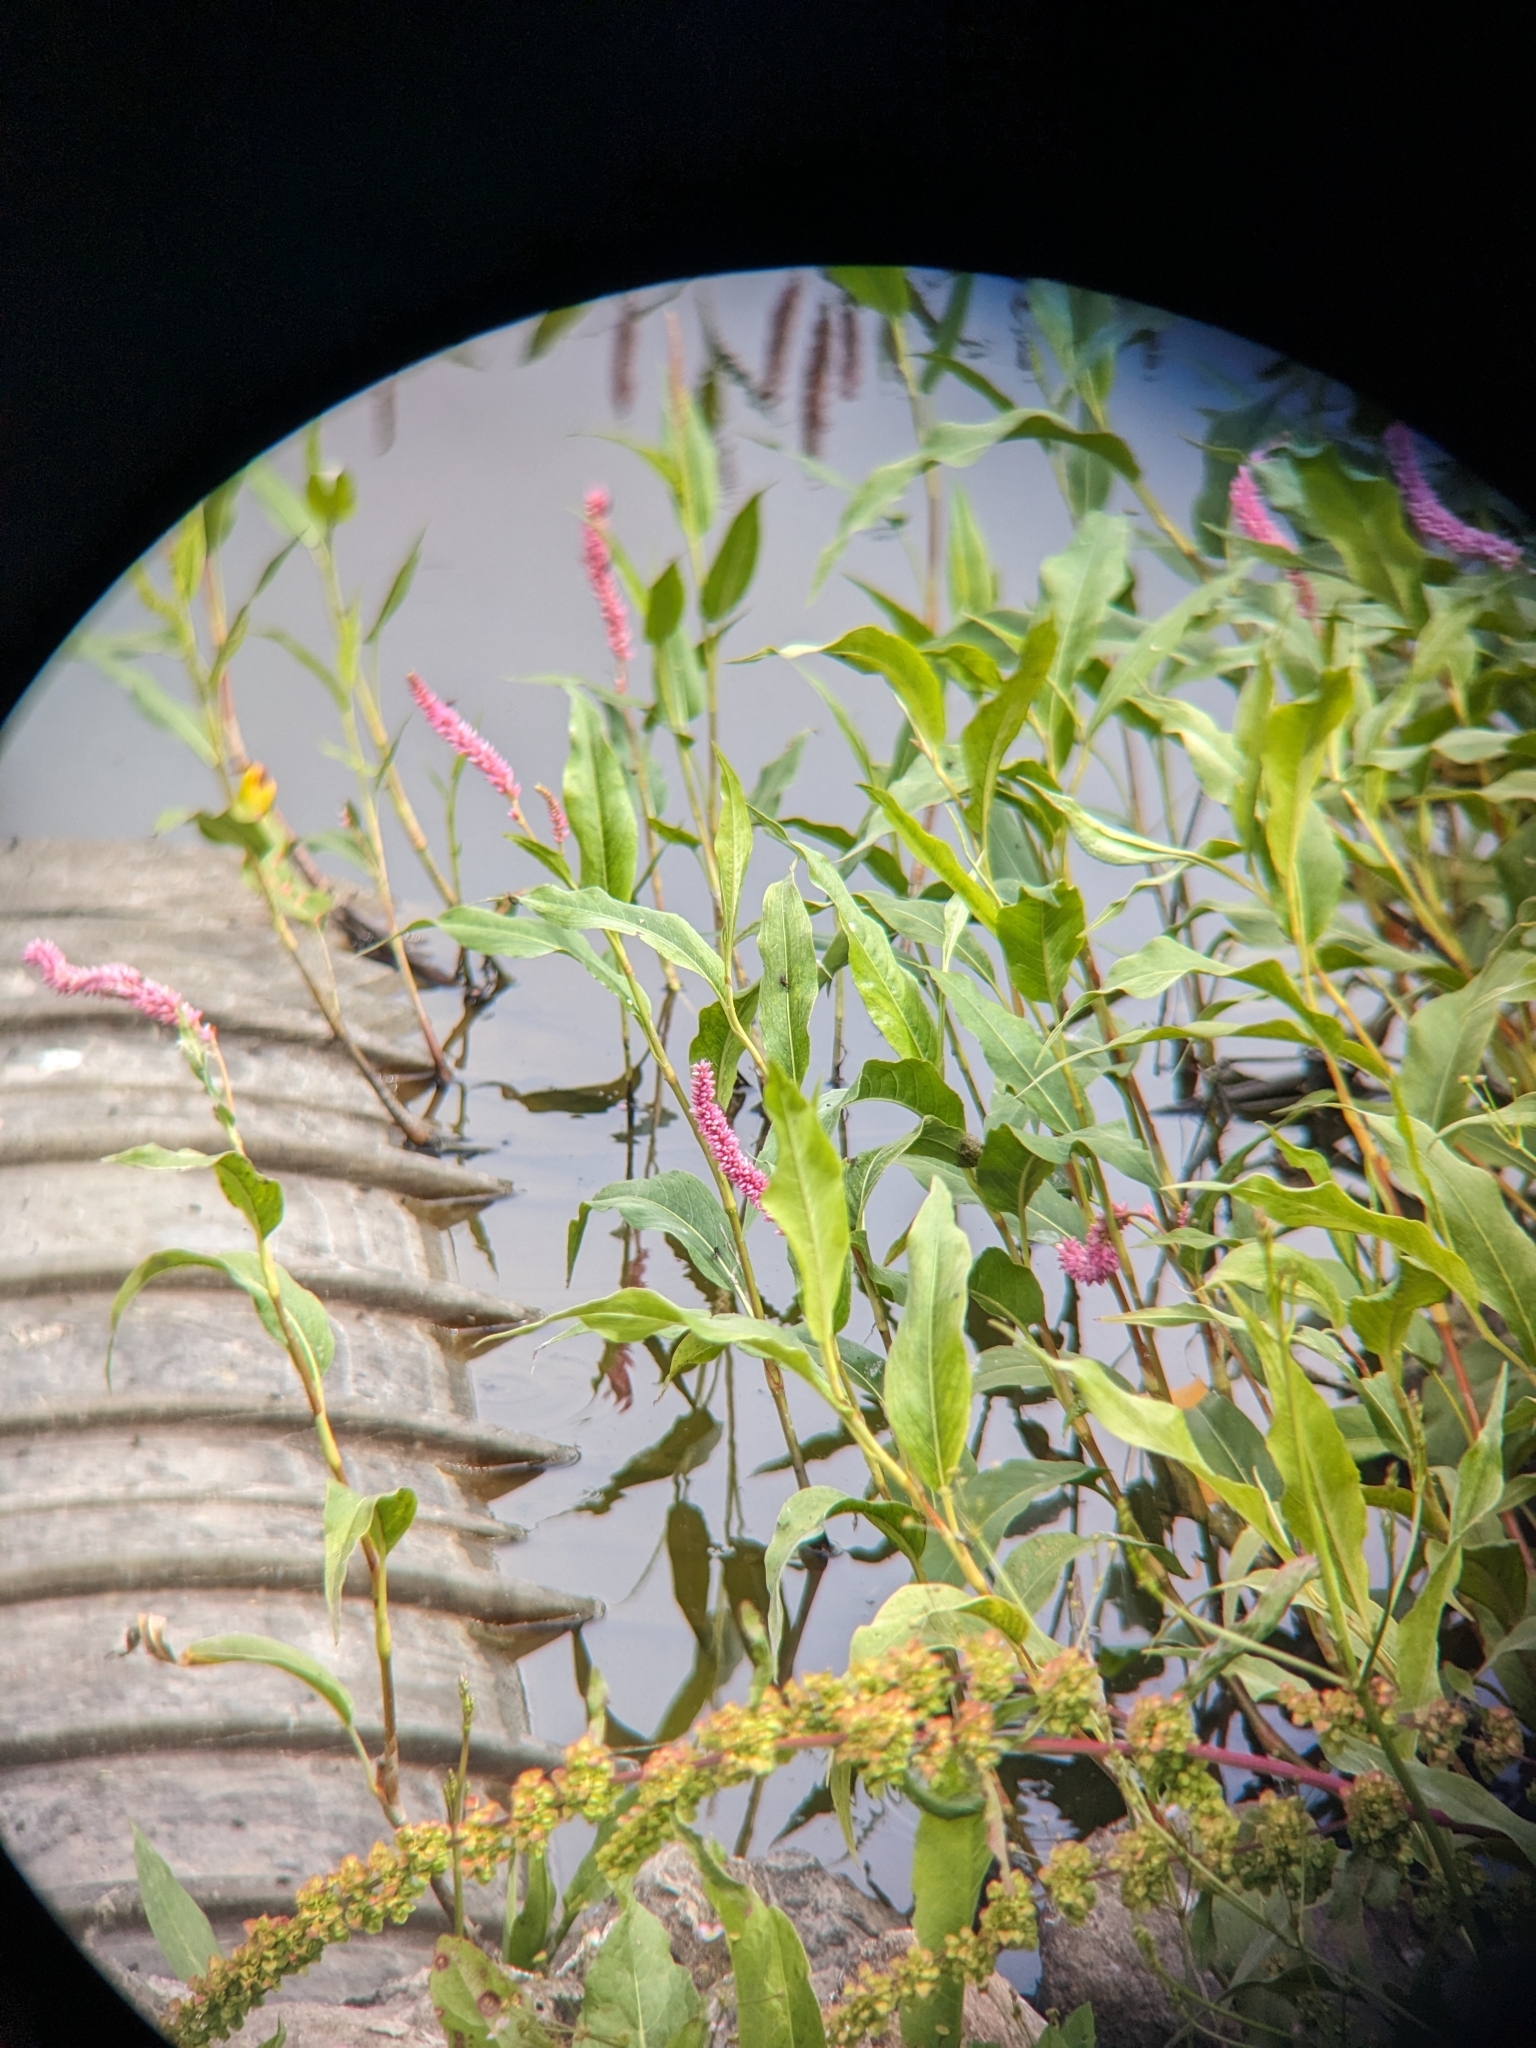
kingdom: Plantae
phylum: Tracheophyta
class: Magnoliopsida
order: Caryophyllales
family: Polygonaceae
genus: Persicaria
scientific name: Persicaria amphibia
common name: Amphibious bistort
